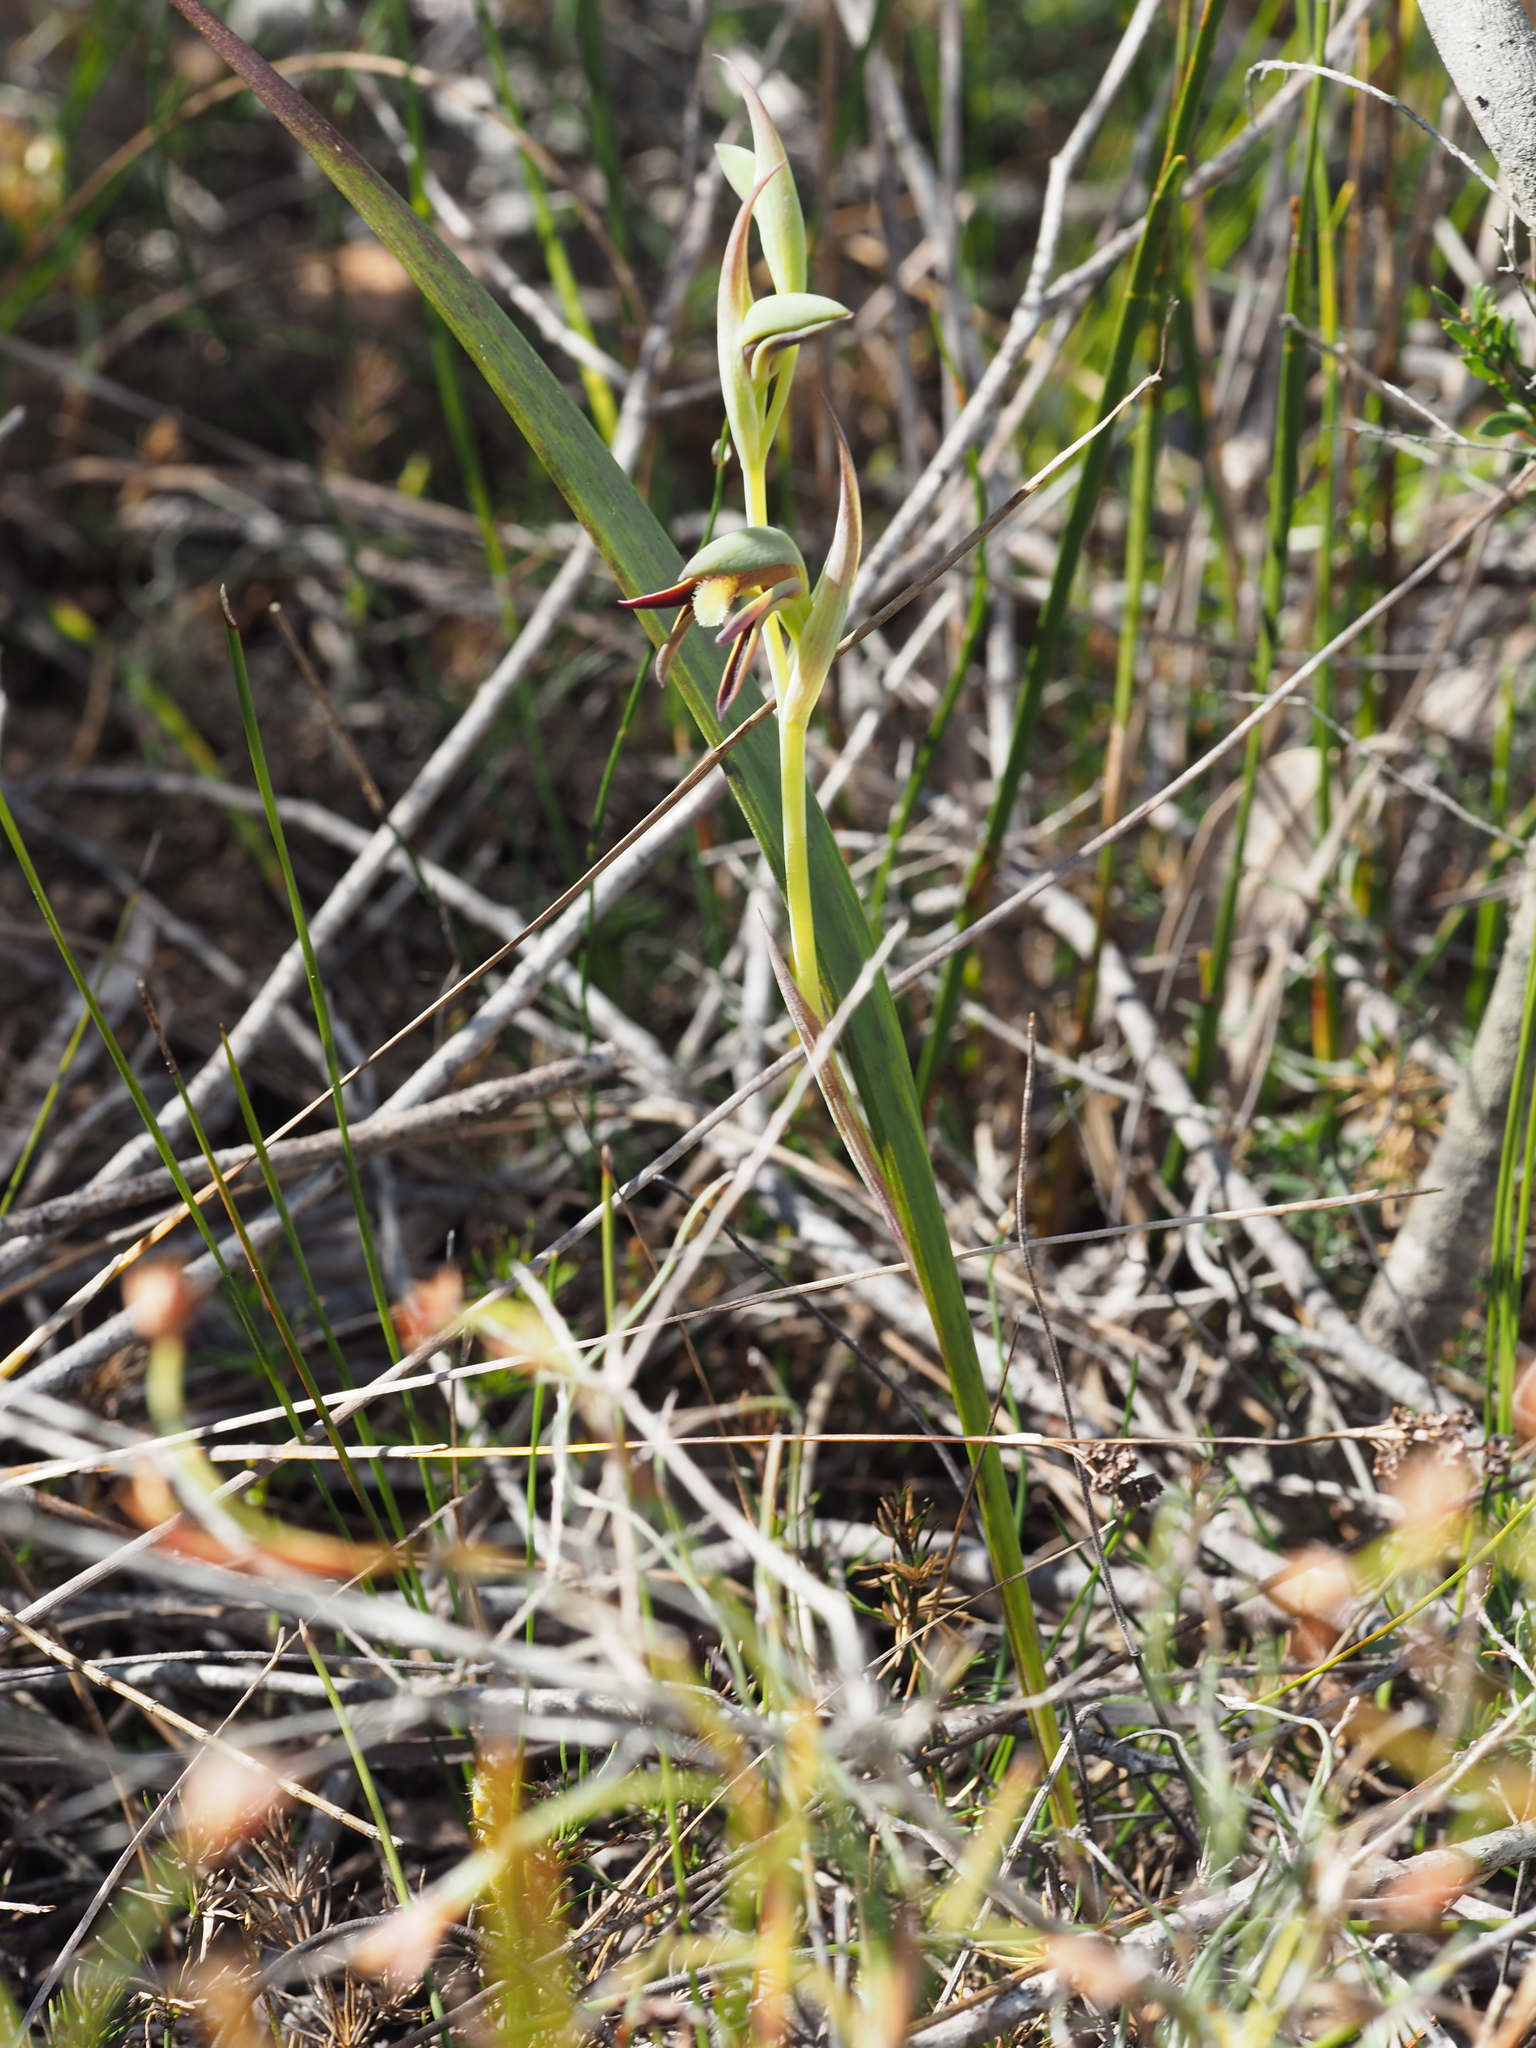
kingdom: Plantae
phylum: Tracheophyta
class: Liliopsida
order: Asparagales
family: Orchidaceae
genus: Lyperanthus
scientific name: Lyperanthus serratus
